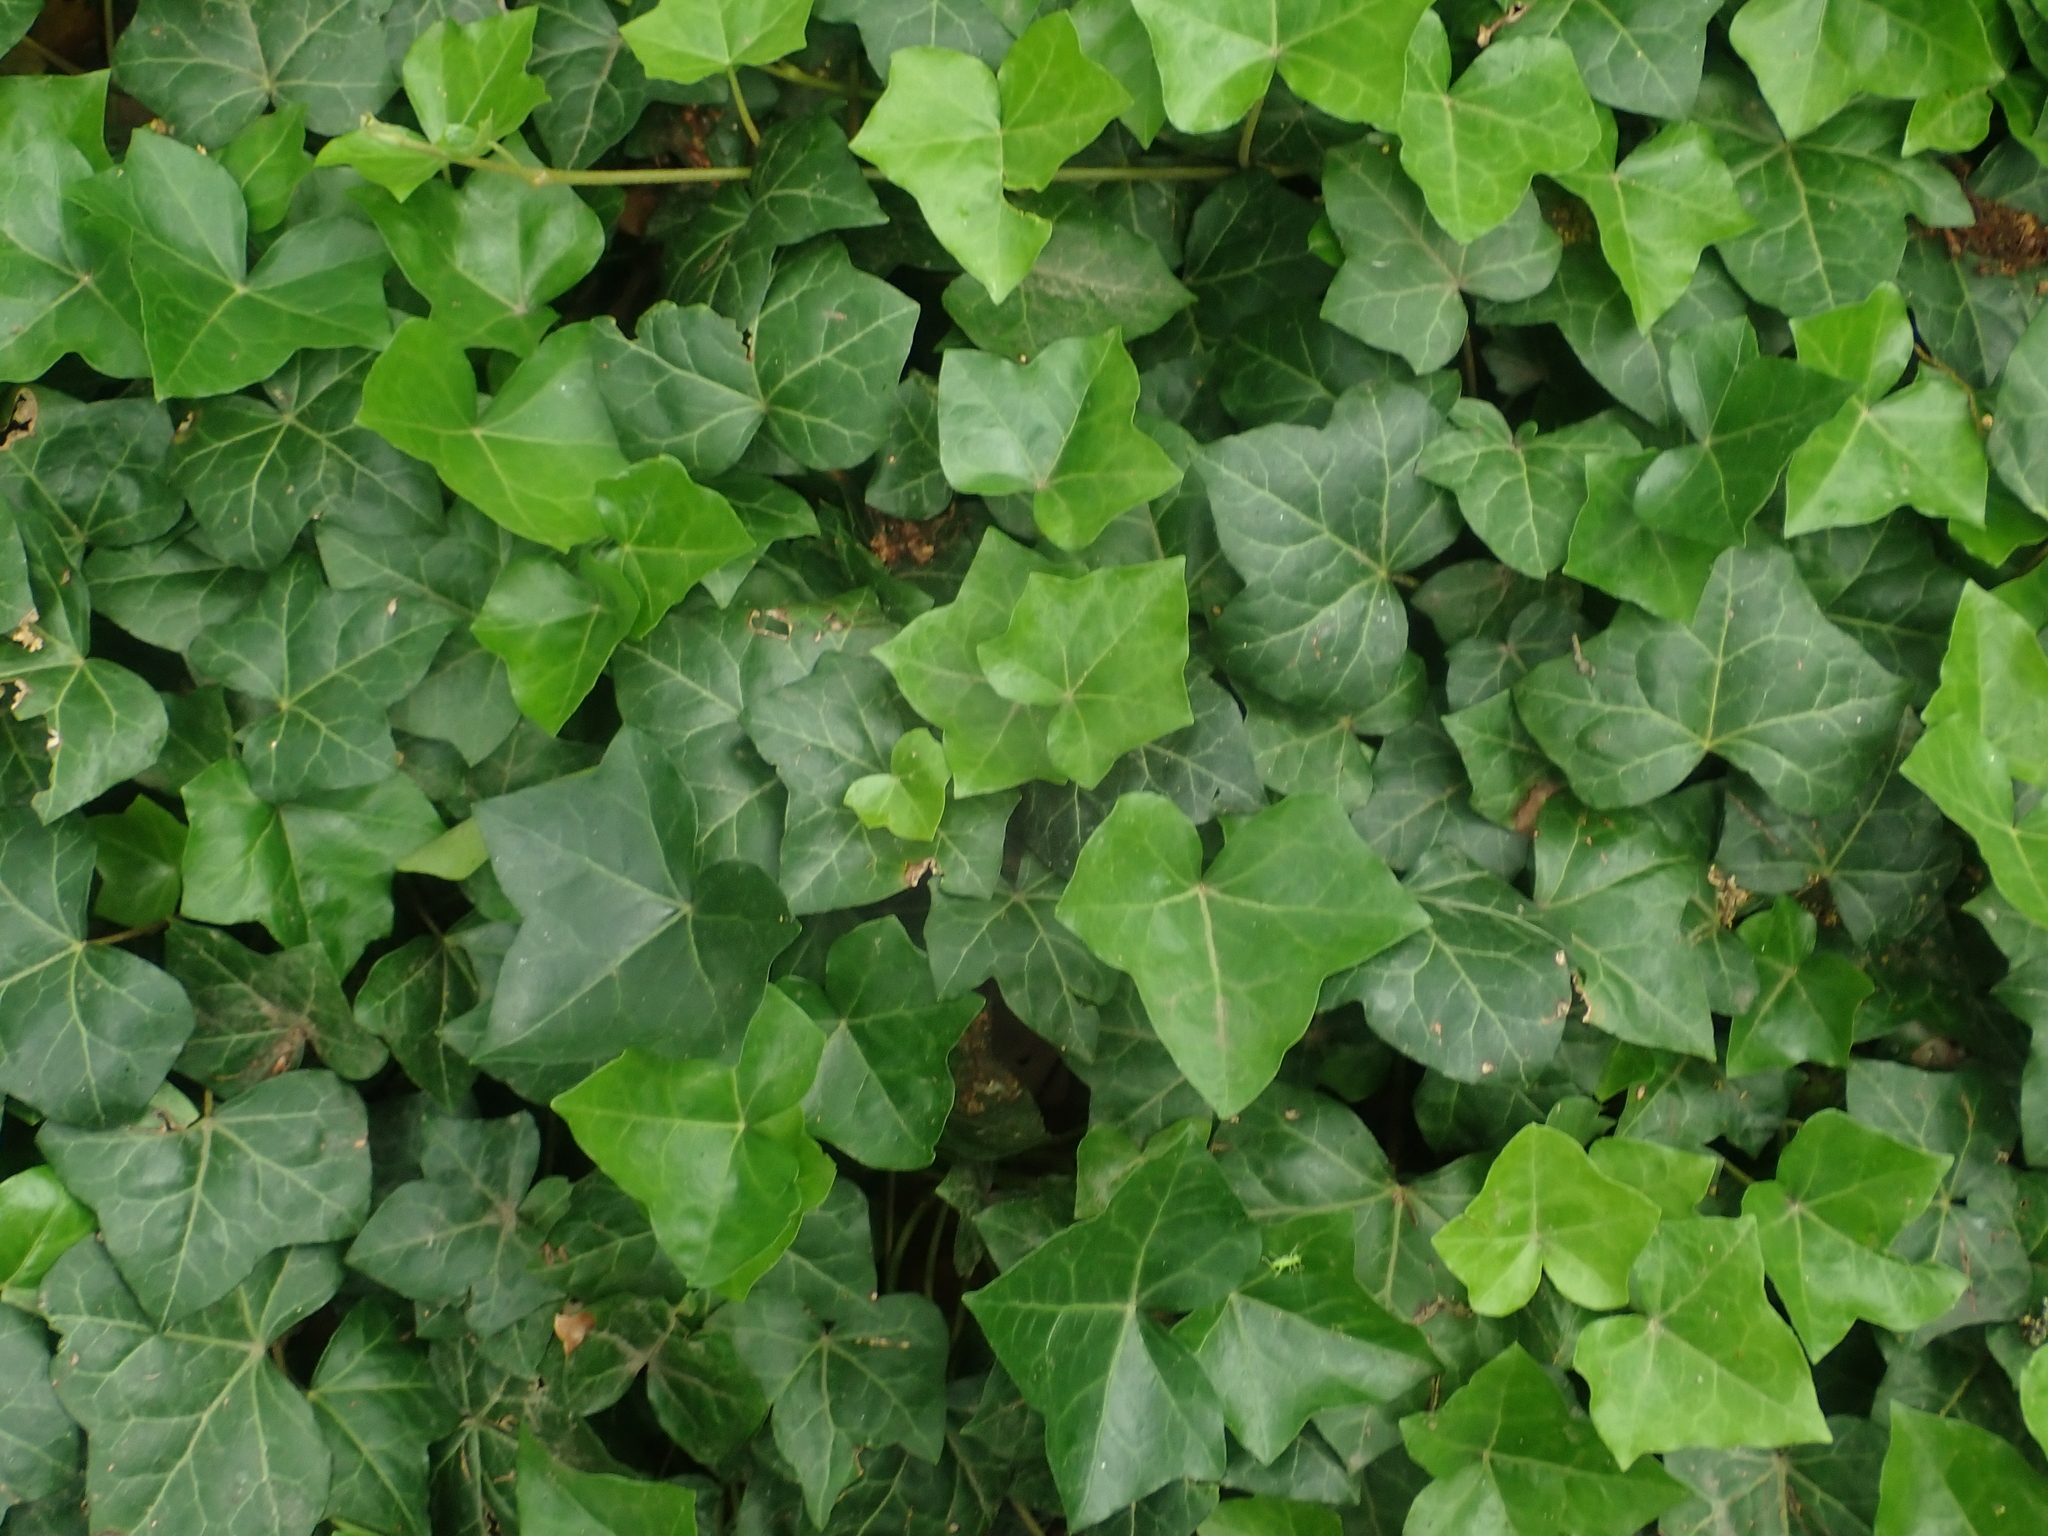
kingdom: Plantae
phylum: Tracheophyta
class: Magnoliopsida
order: Apiales
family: Araliaceae
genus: Hedera
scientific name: Hedera helix
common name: Ivy
